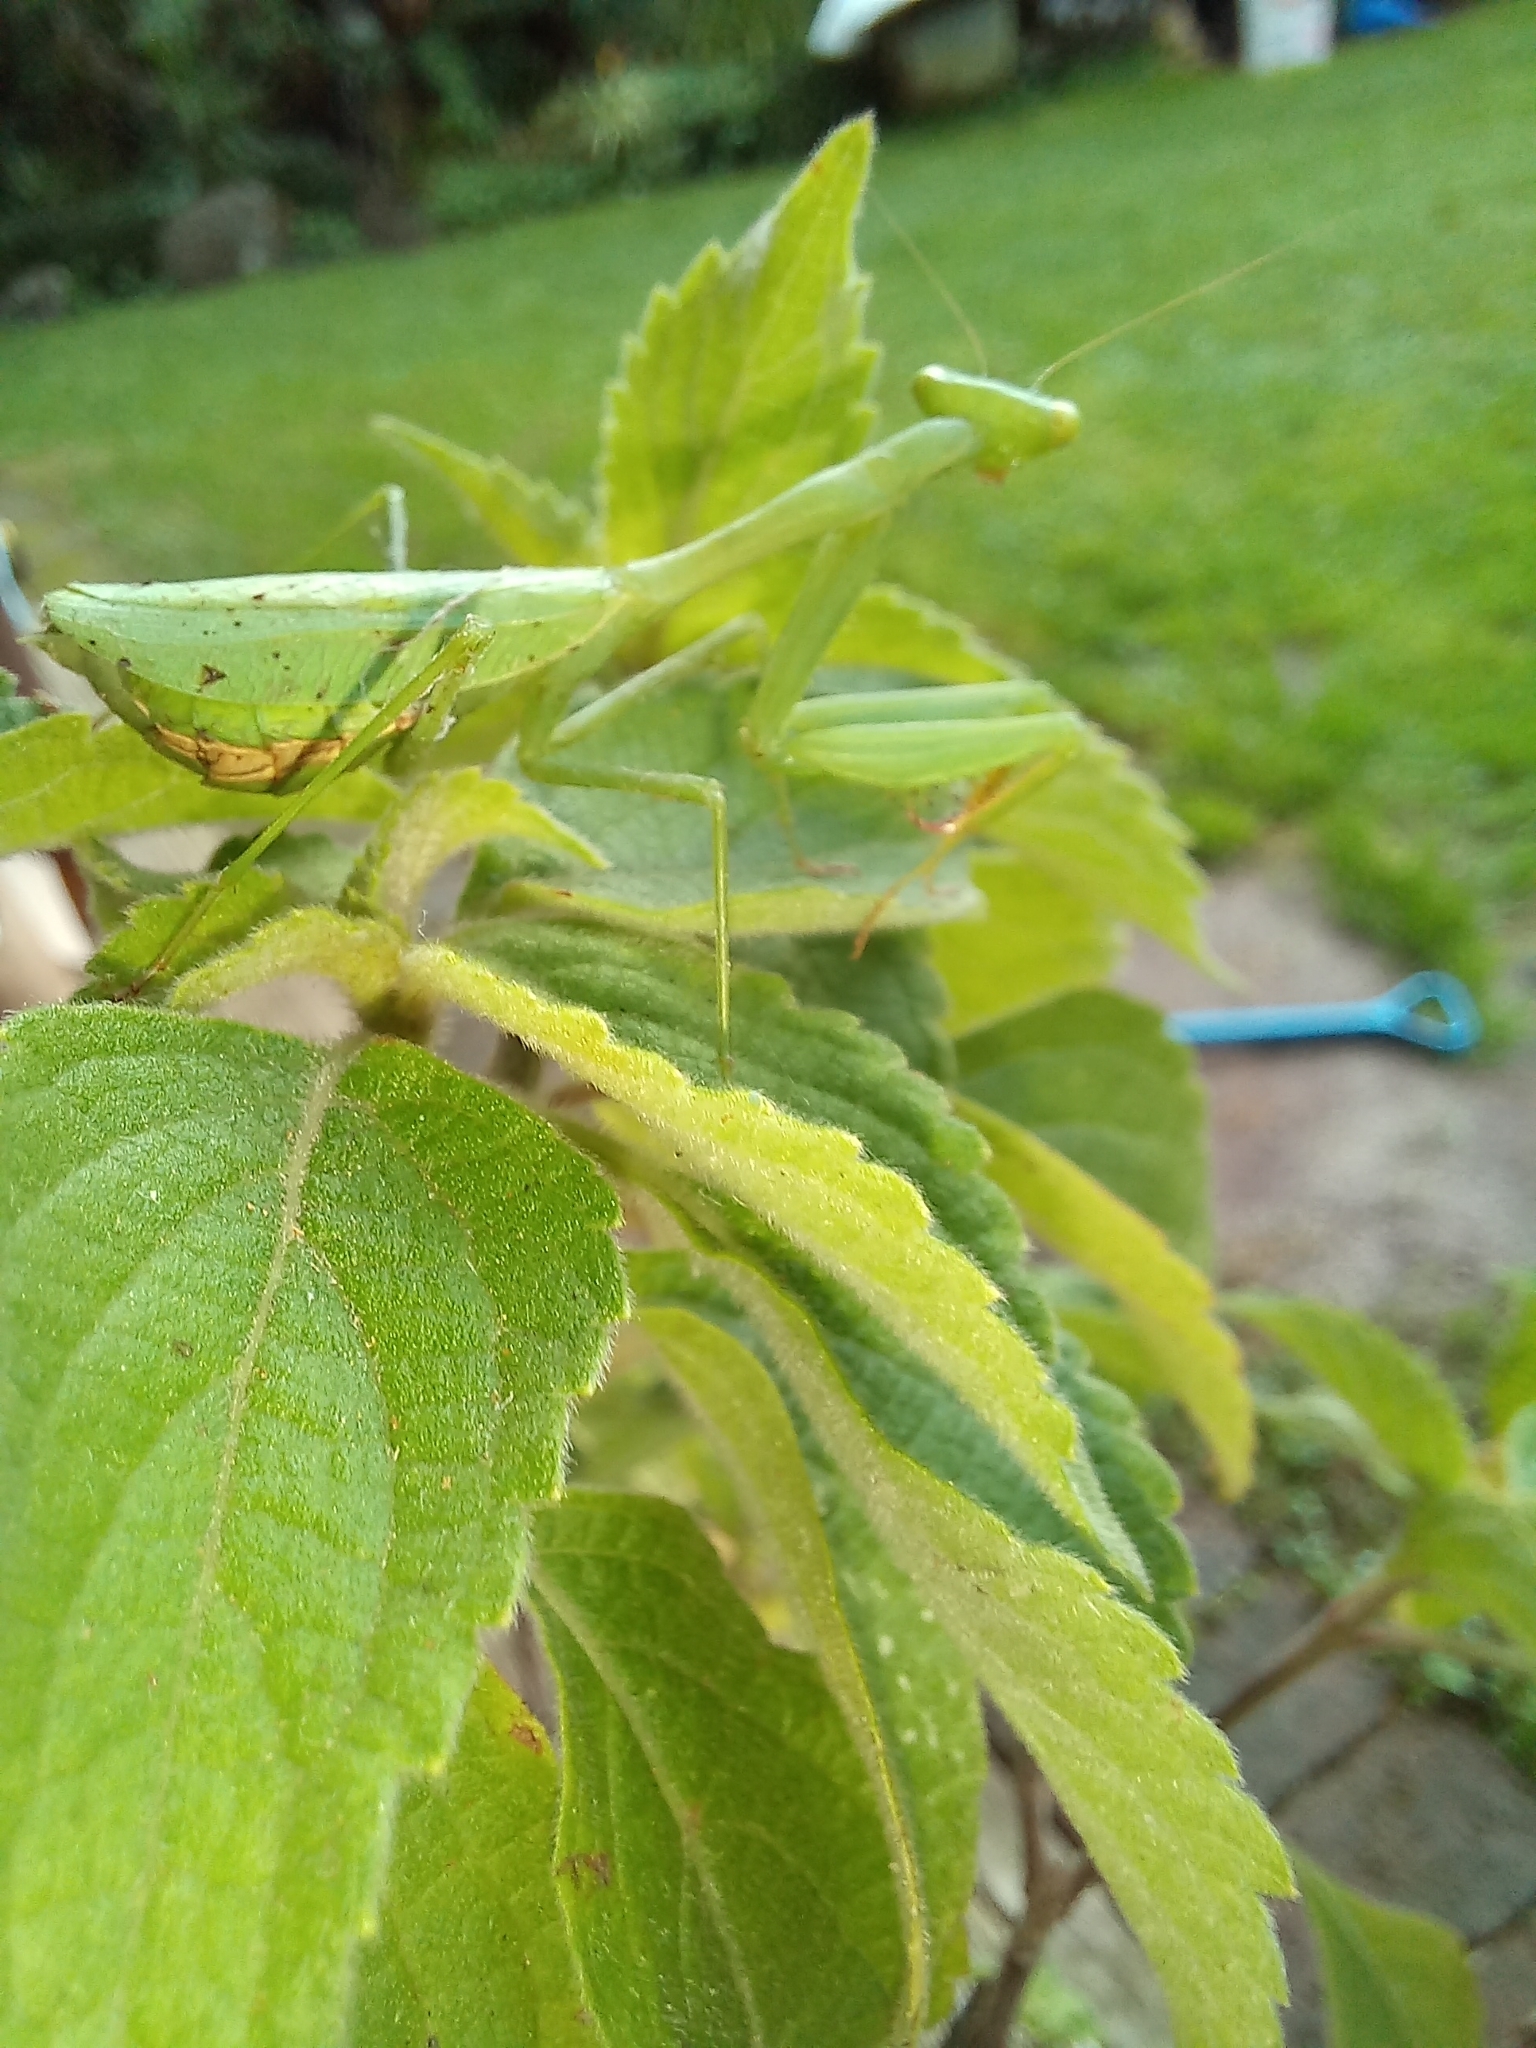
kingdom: Animalia
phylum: Arthropoda
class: Insecta
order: Mantodea
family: Miomantidae
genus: Miomantis
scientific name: Miomantis caffra
